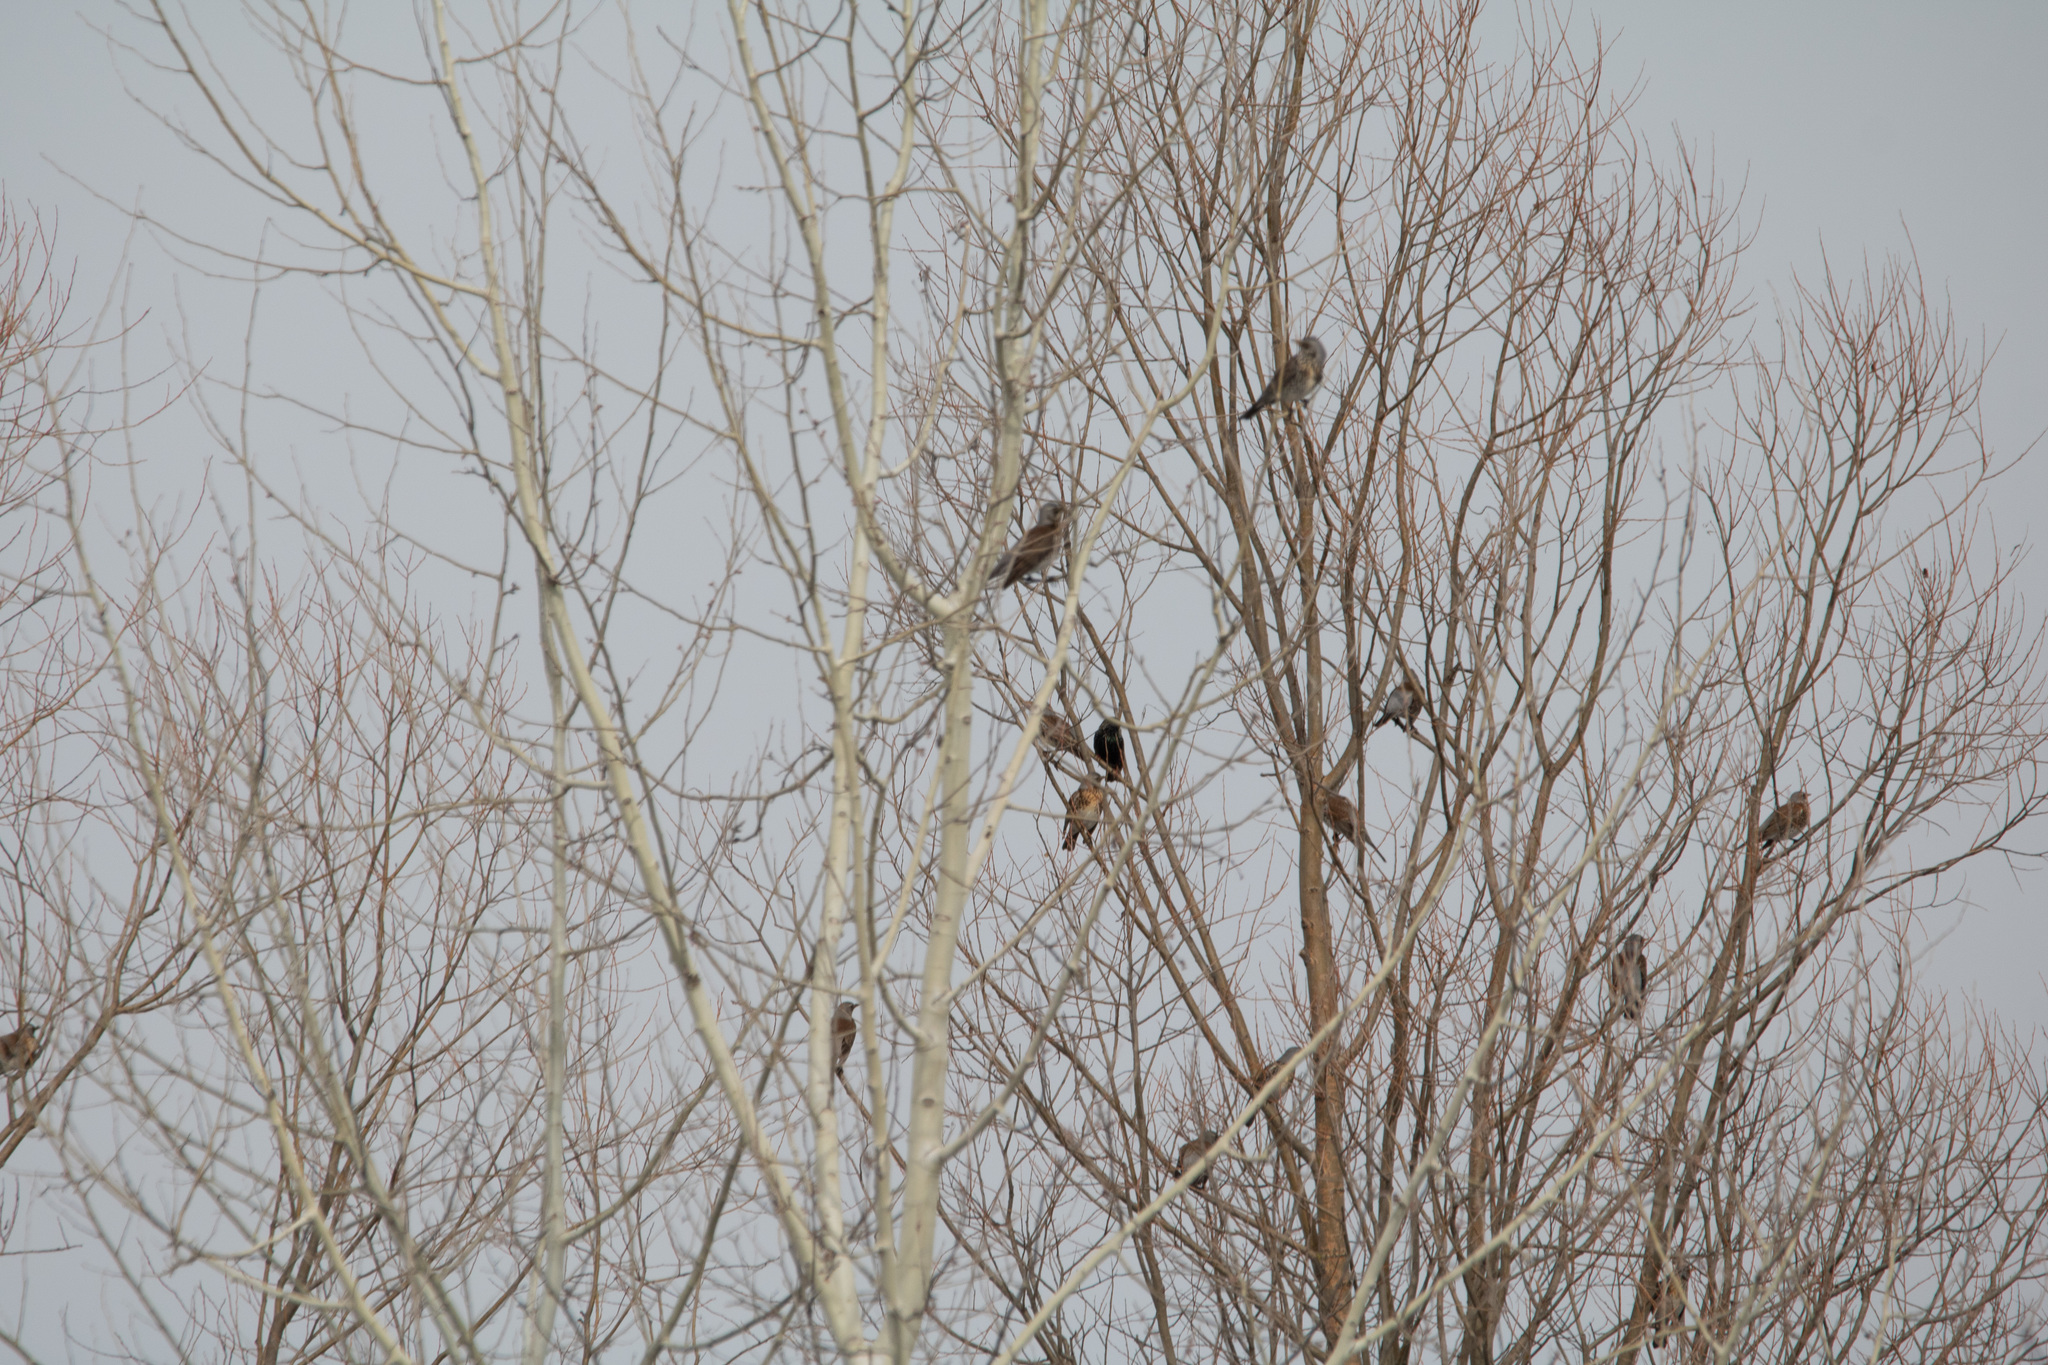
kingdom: Animalia
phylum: Chordata
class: Aves
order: Passeriformes
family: Turdidae
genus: Turdus
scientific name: Turdus pilaris
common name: Fieldfare
